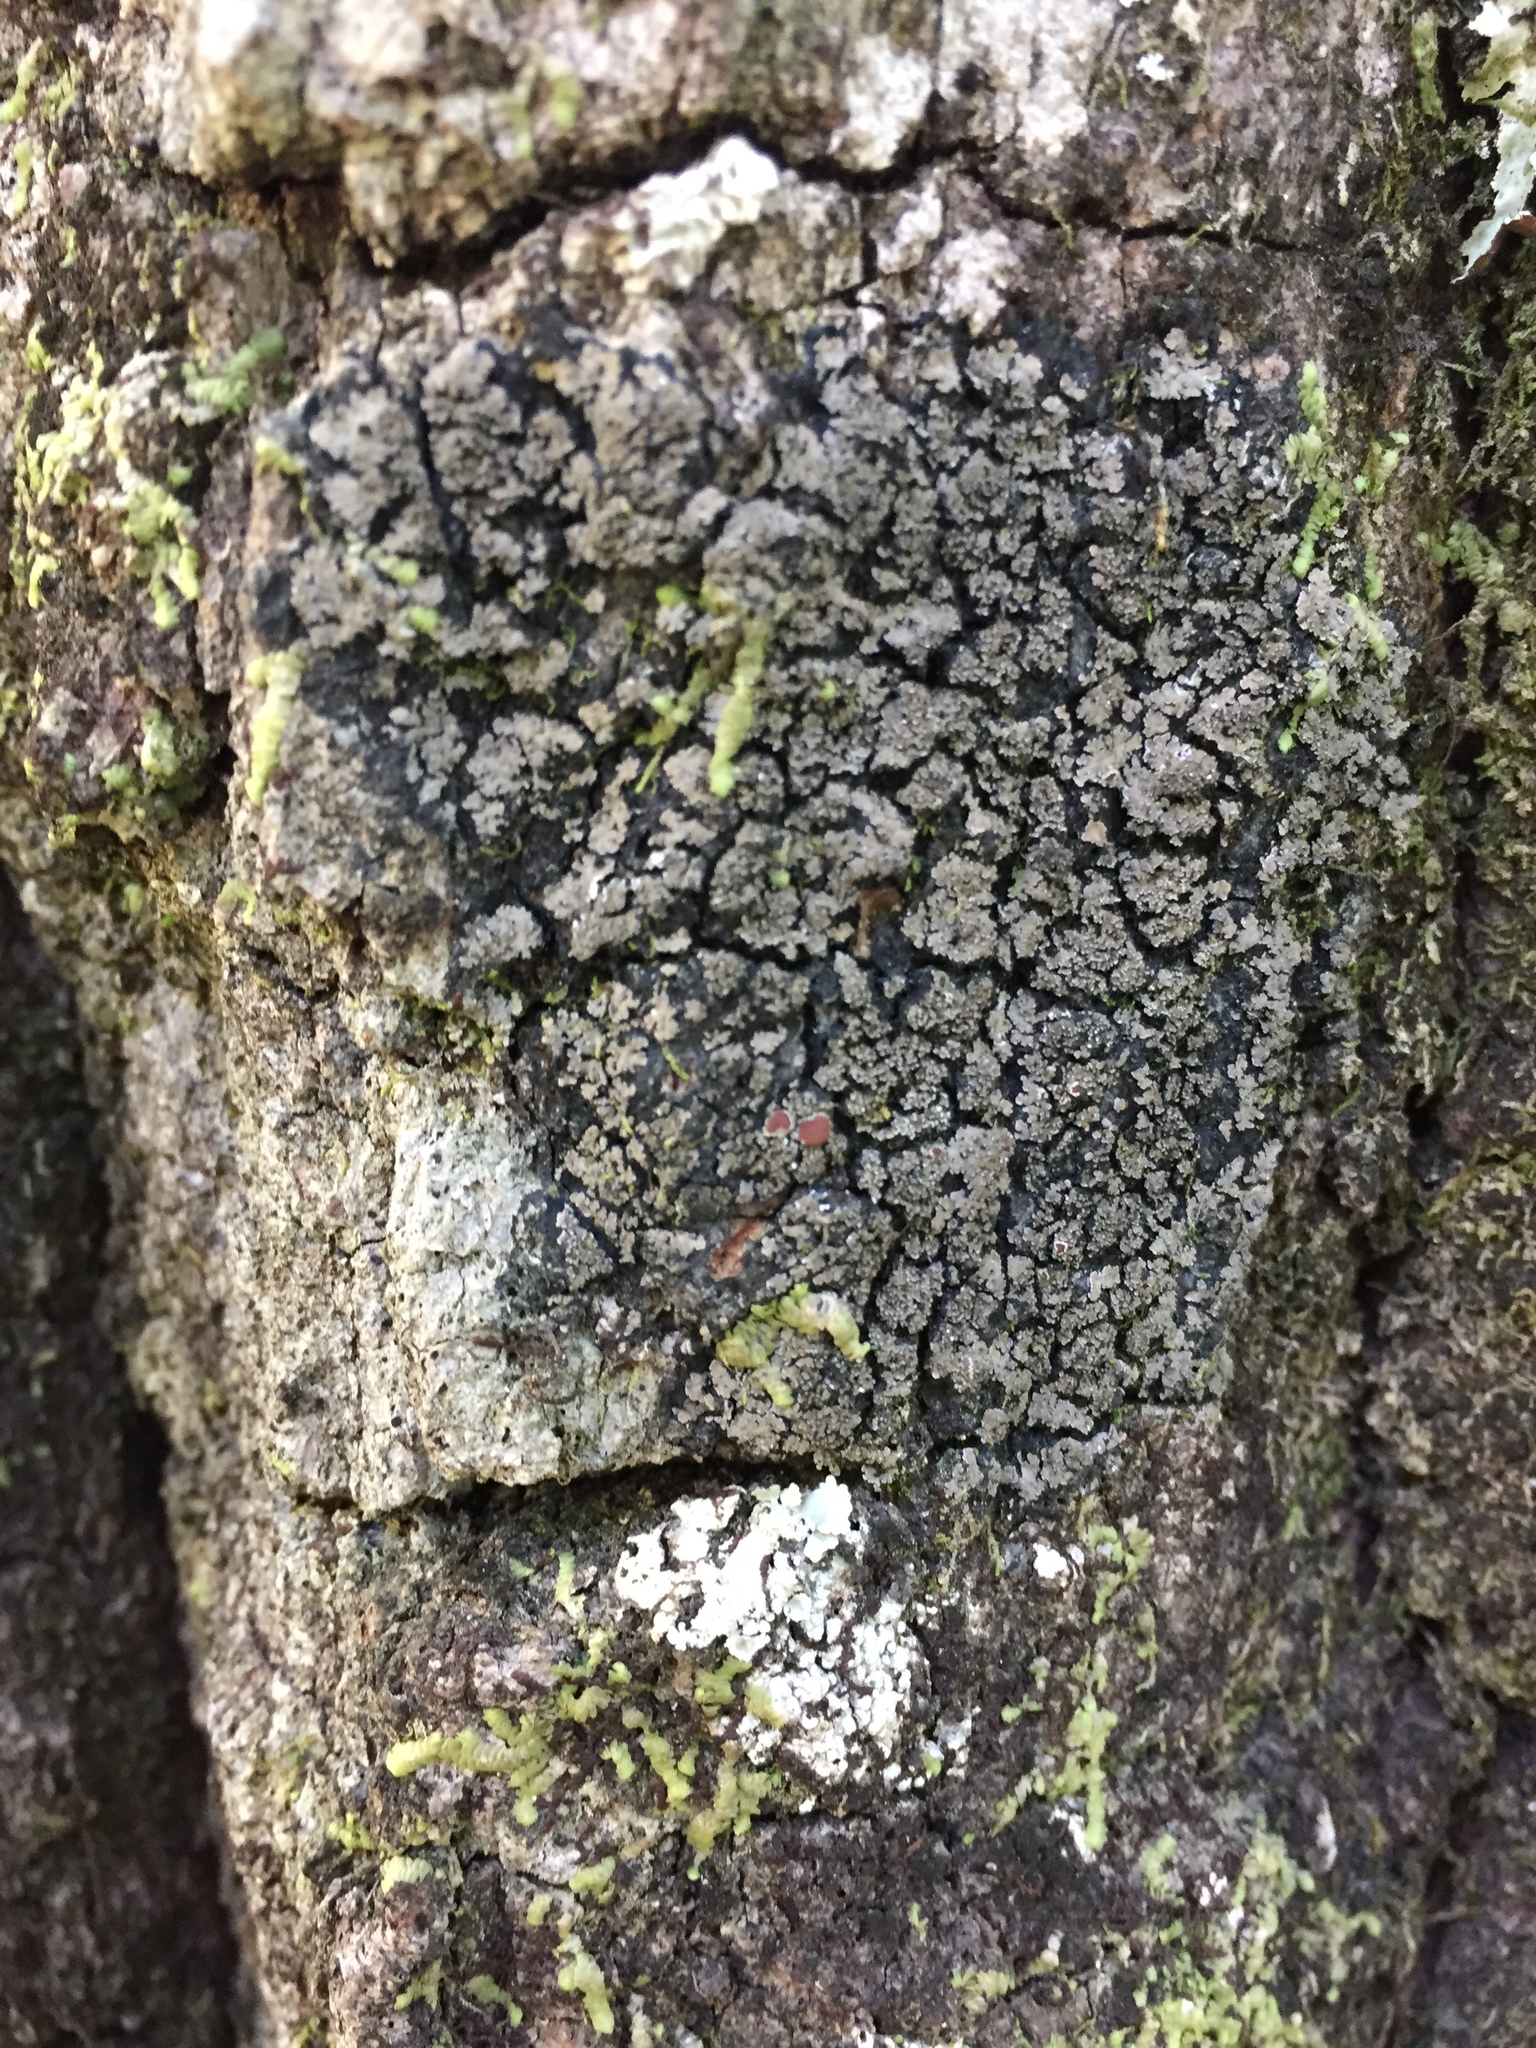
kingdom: Fungi
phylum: Ascomycota
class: Lecanoromycetes
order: Peltigerales
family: Pannariaceae
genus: Fuscopannaria
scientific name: Fuscopannaria leucosticta
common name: Rimmed shingle lichen
